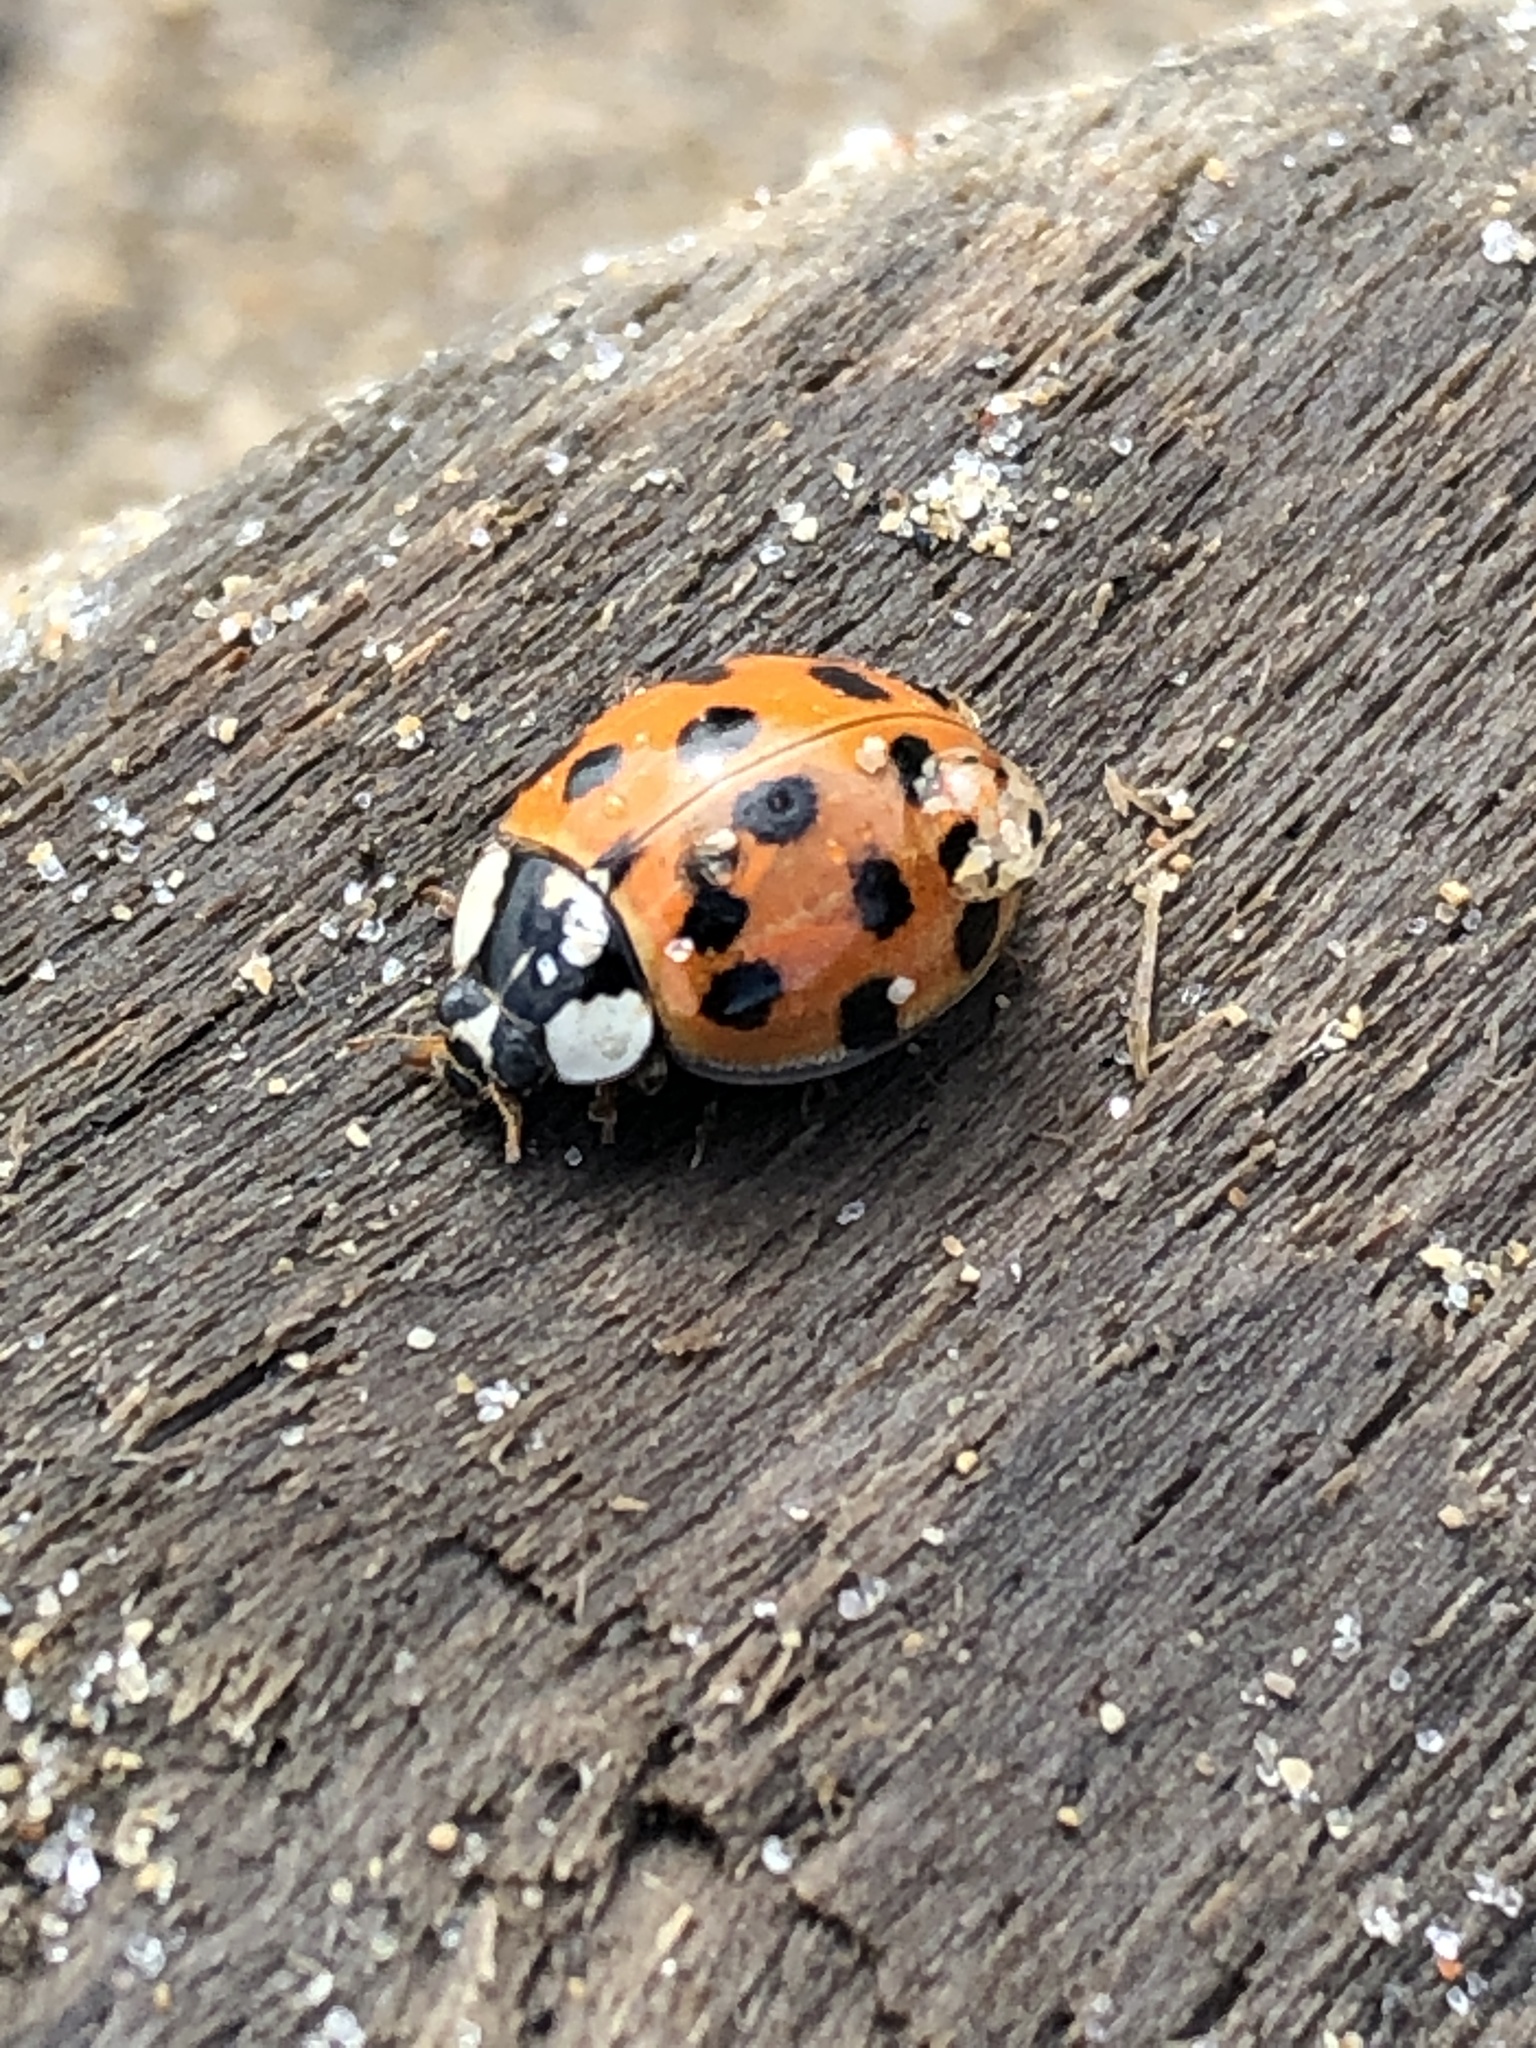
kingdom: Animalia
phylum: Arthropoda
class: Insecta
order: Coleoptera
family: Coccinellidae
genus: Harmonia
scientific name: Harmonia axyridis
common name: Harlequin ladybird
